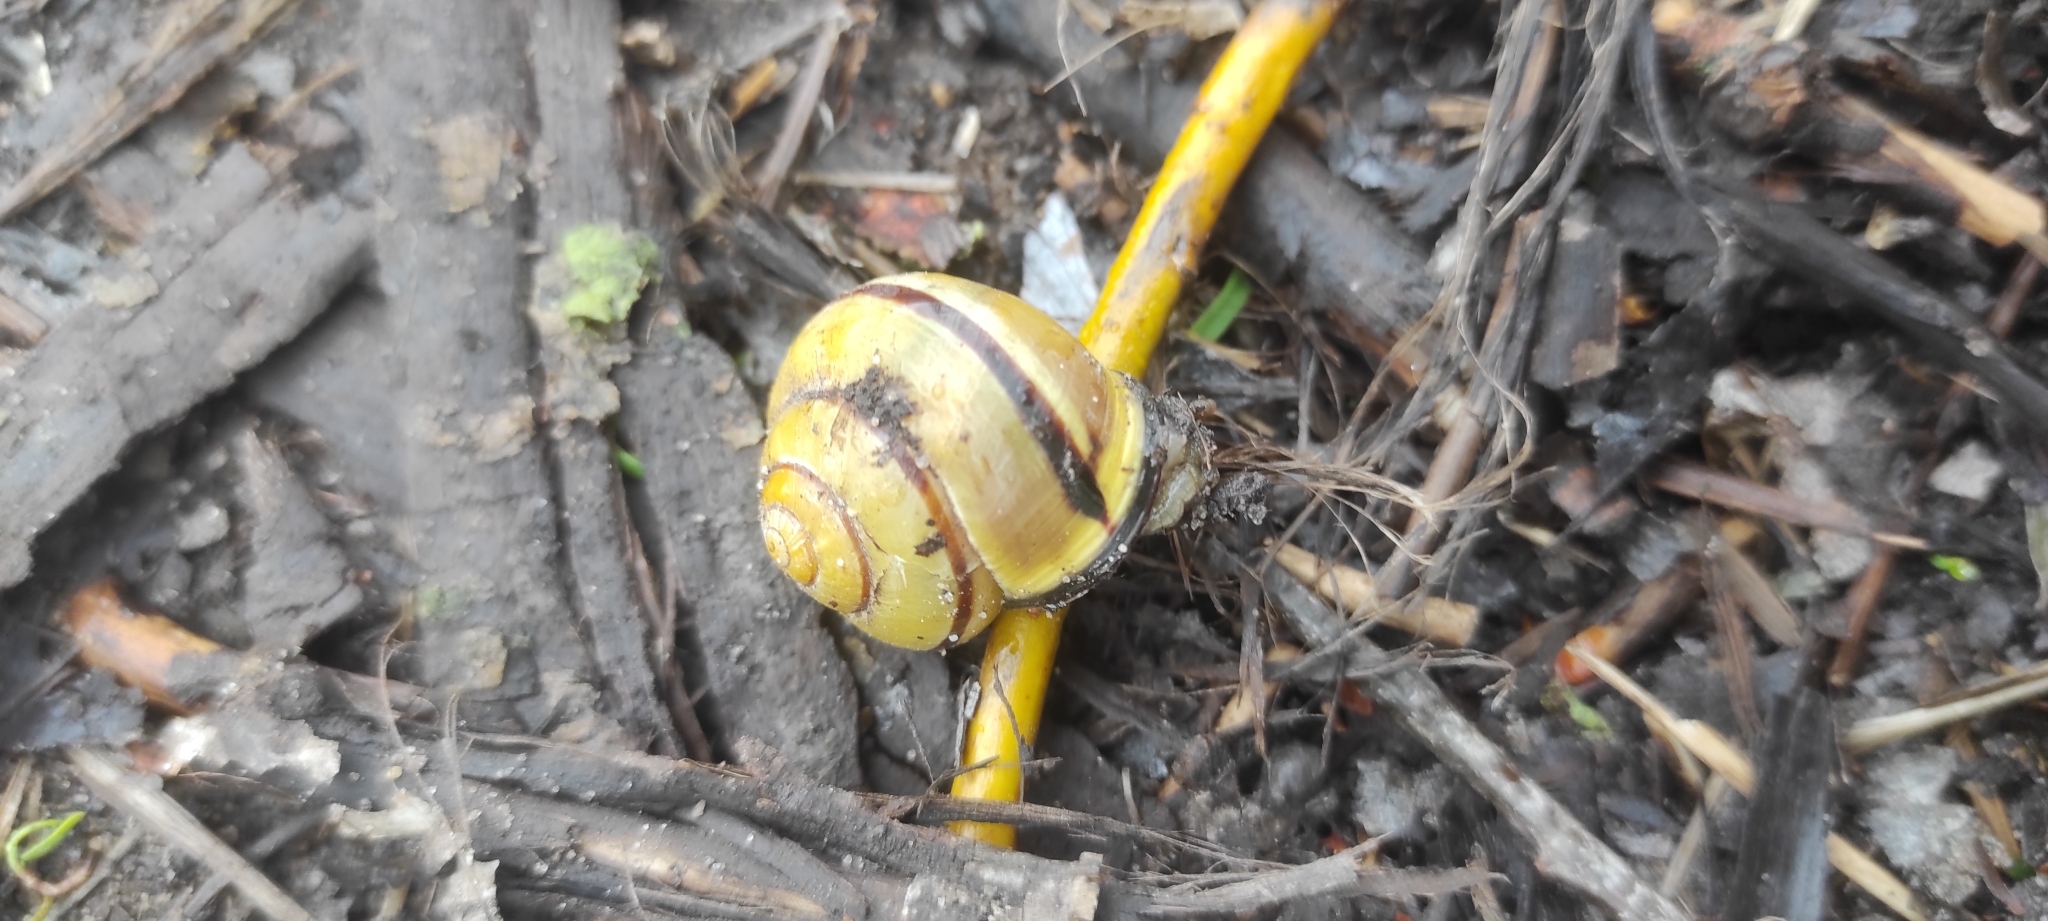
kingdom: Animalia
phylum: Mollusca
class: Gastropoda
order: Stylommatophora
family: Helicidae
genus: Cepaea
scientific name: Cepaea nemoralis
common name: Grovesnail
